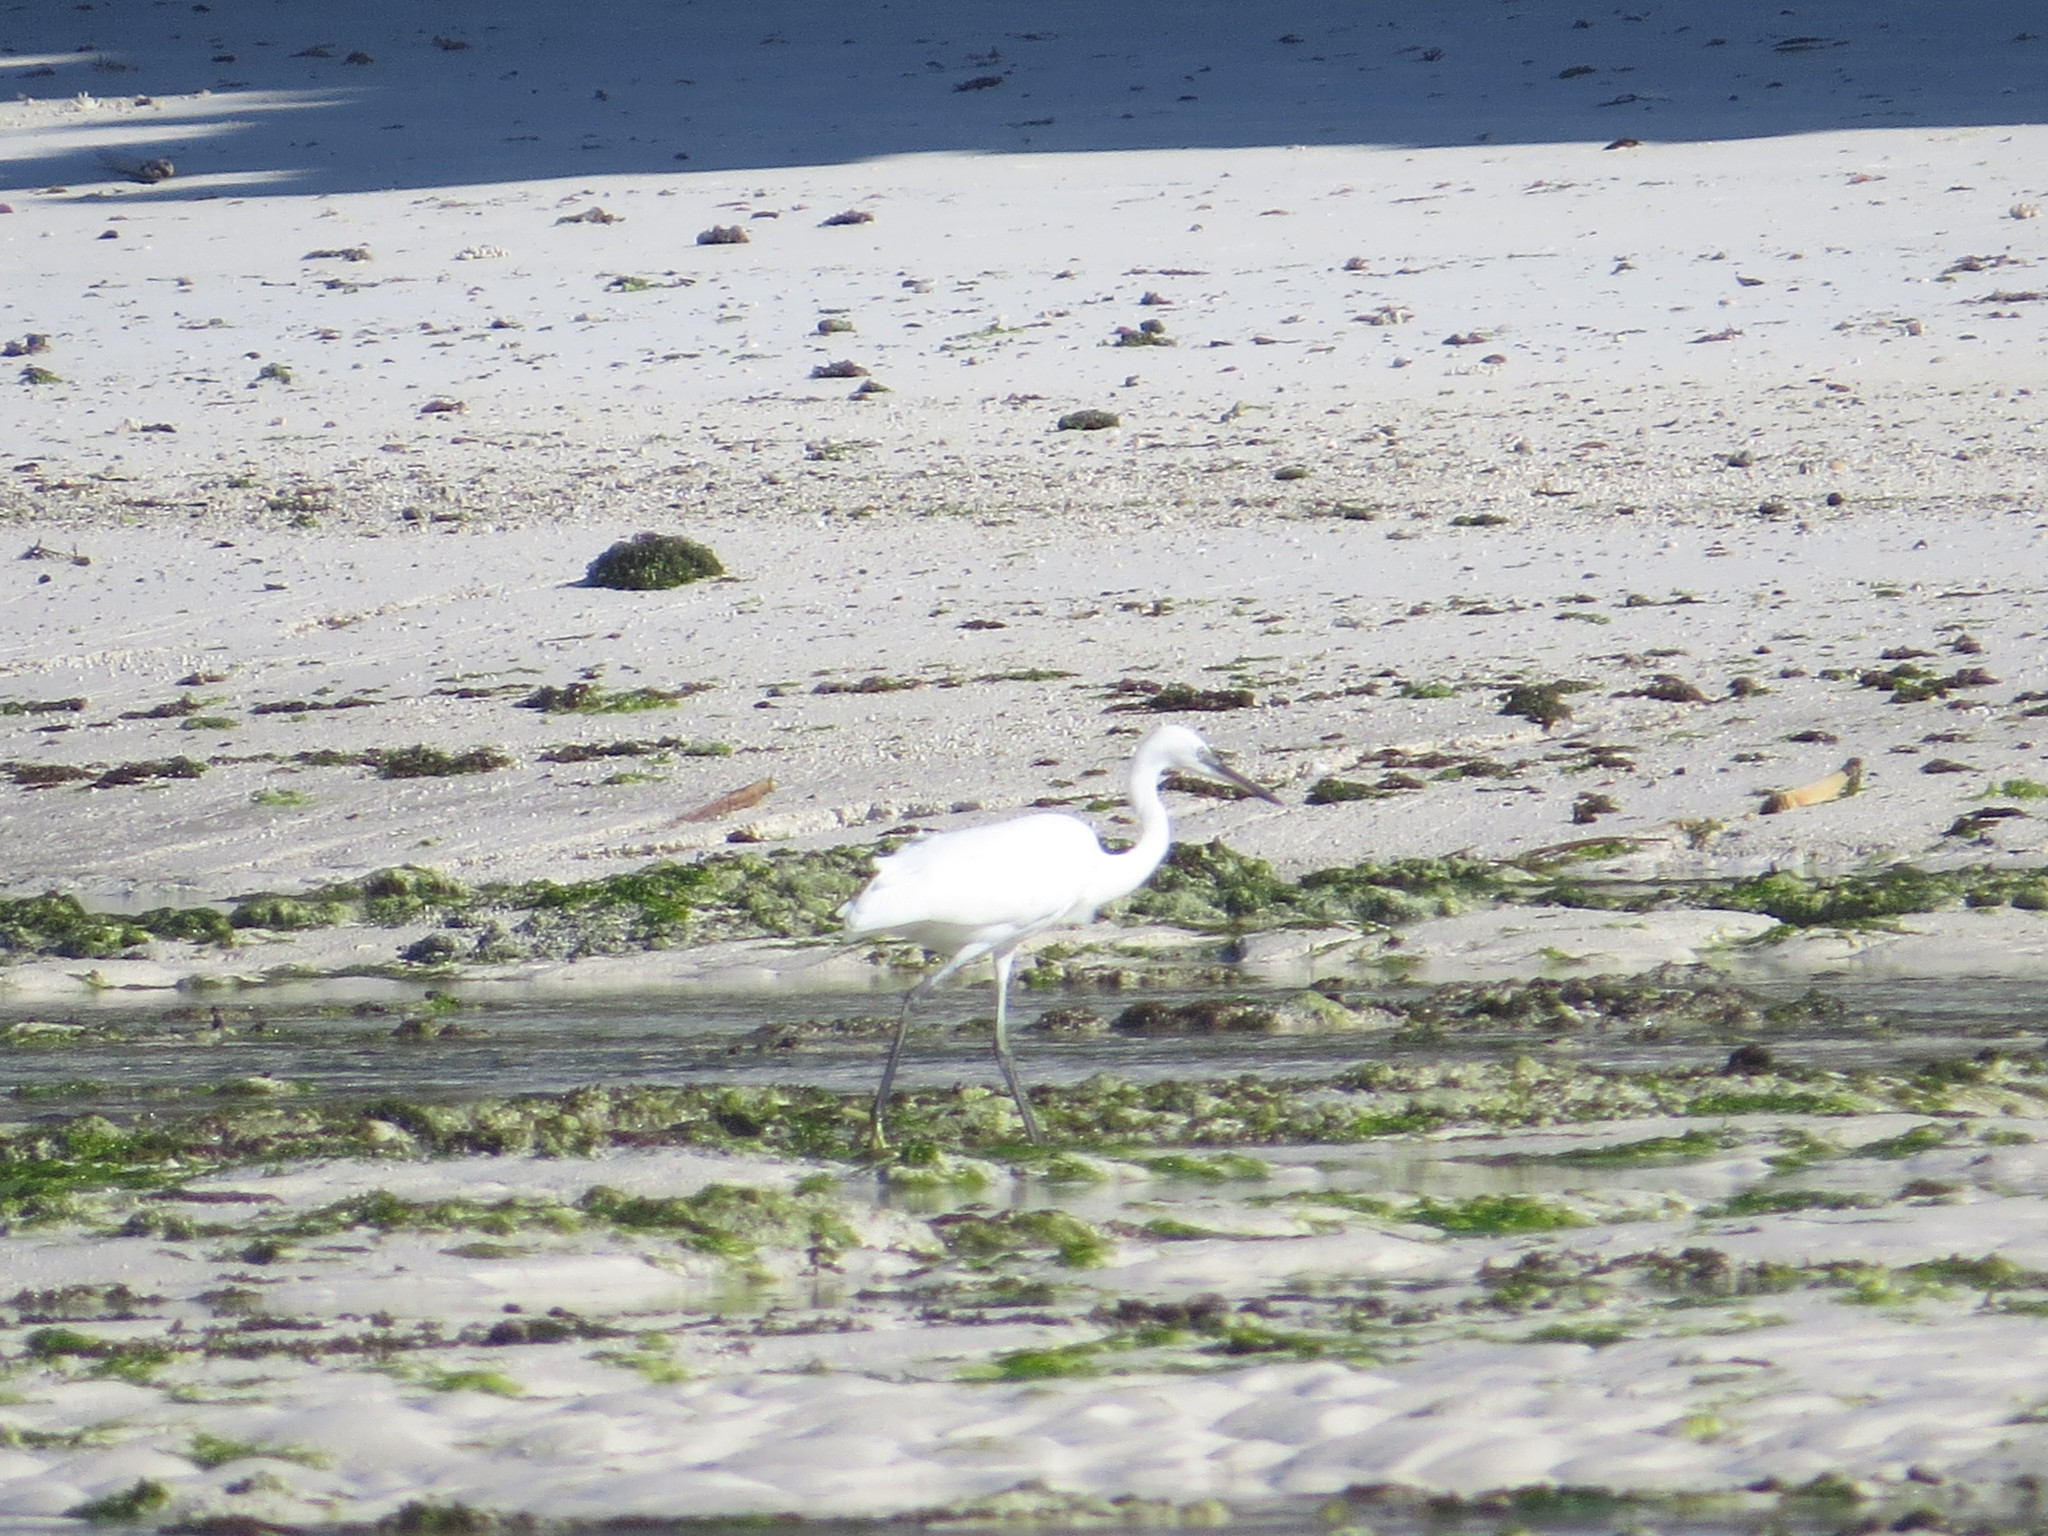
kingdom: Animalia
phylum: Chordata
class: Aves
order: Pelecaniformes
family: Ardeidae
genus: Egretta
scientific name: Egretta garzetta
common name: Little egret
